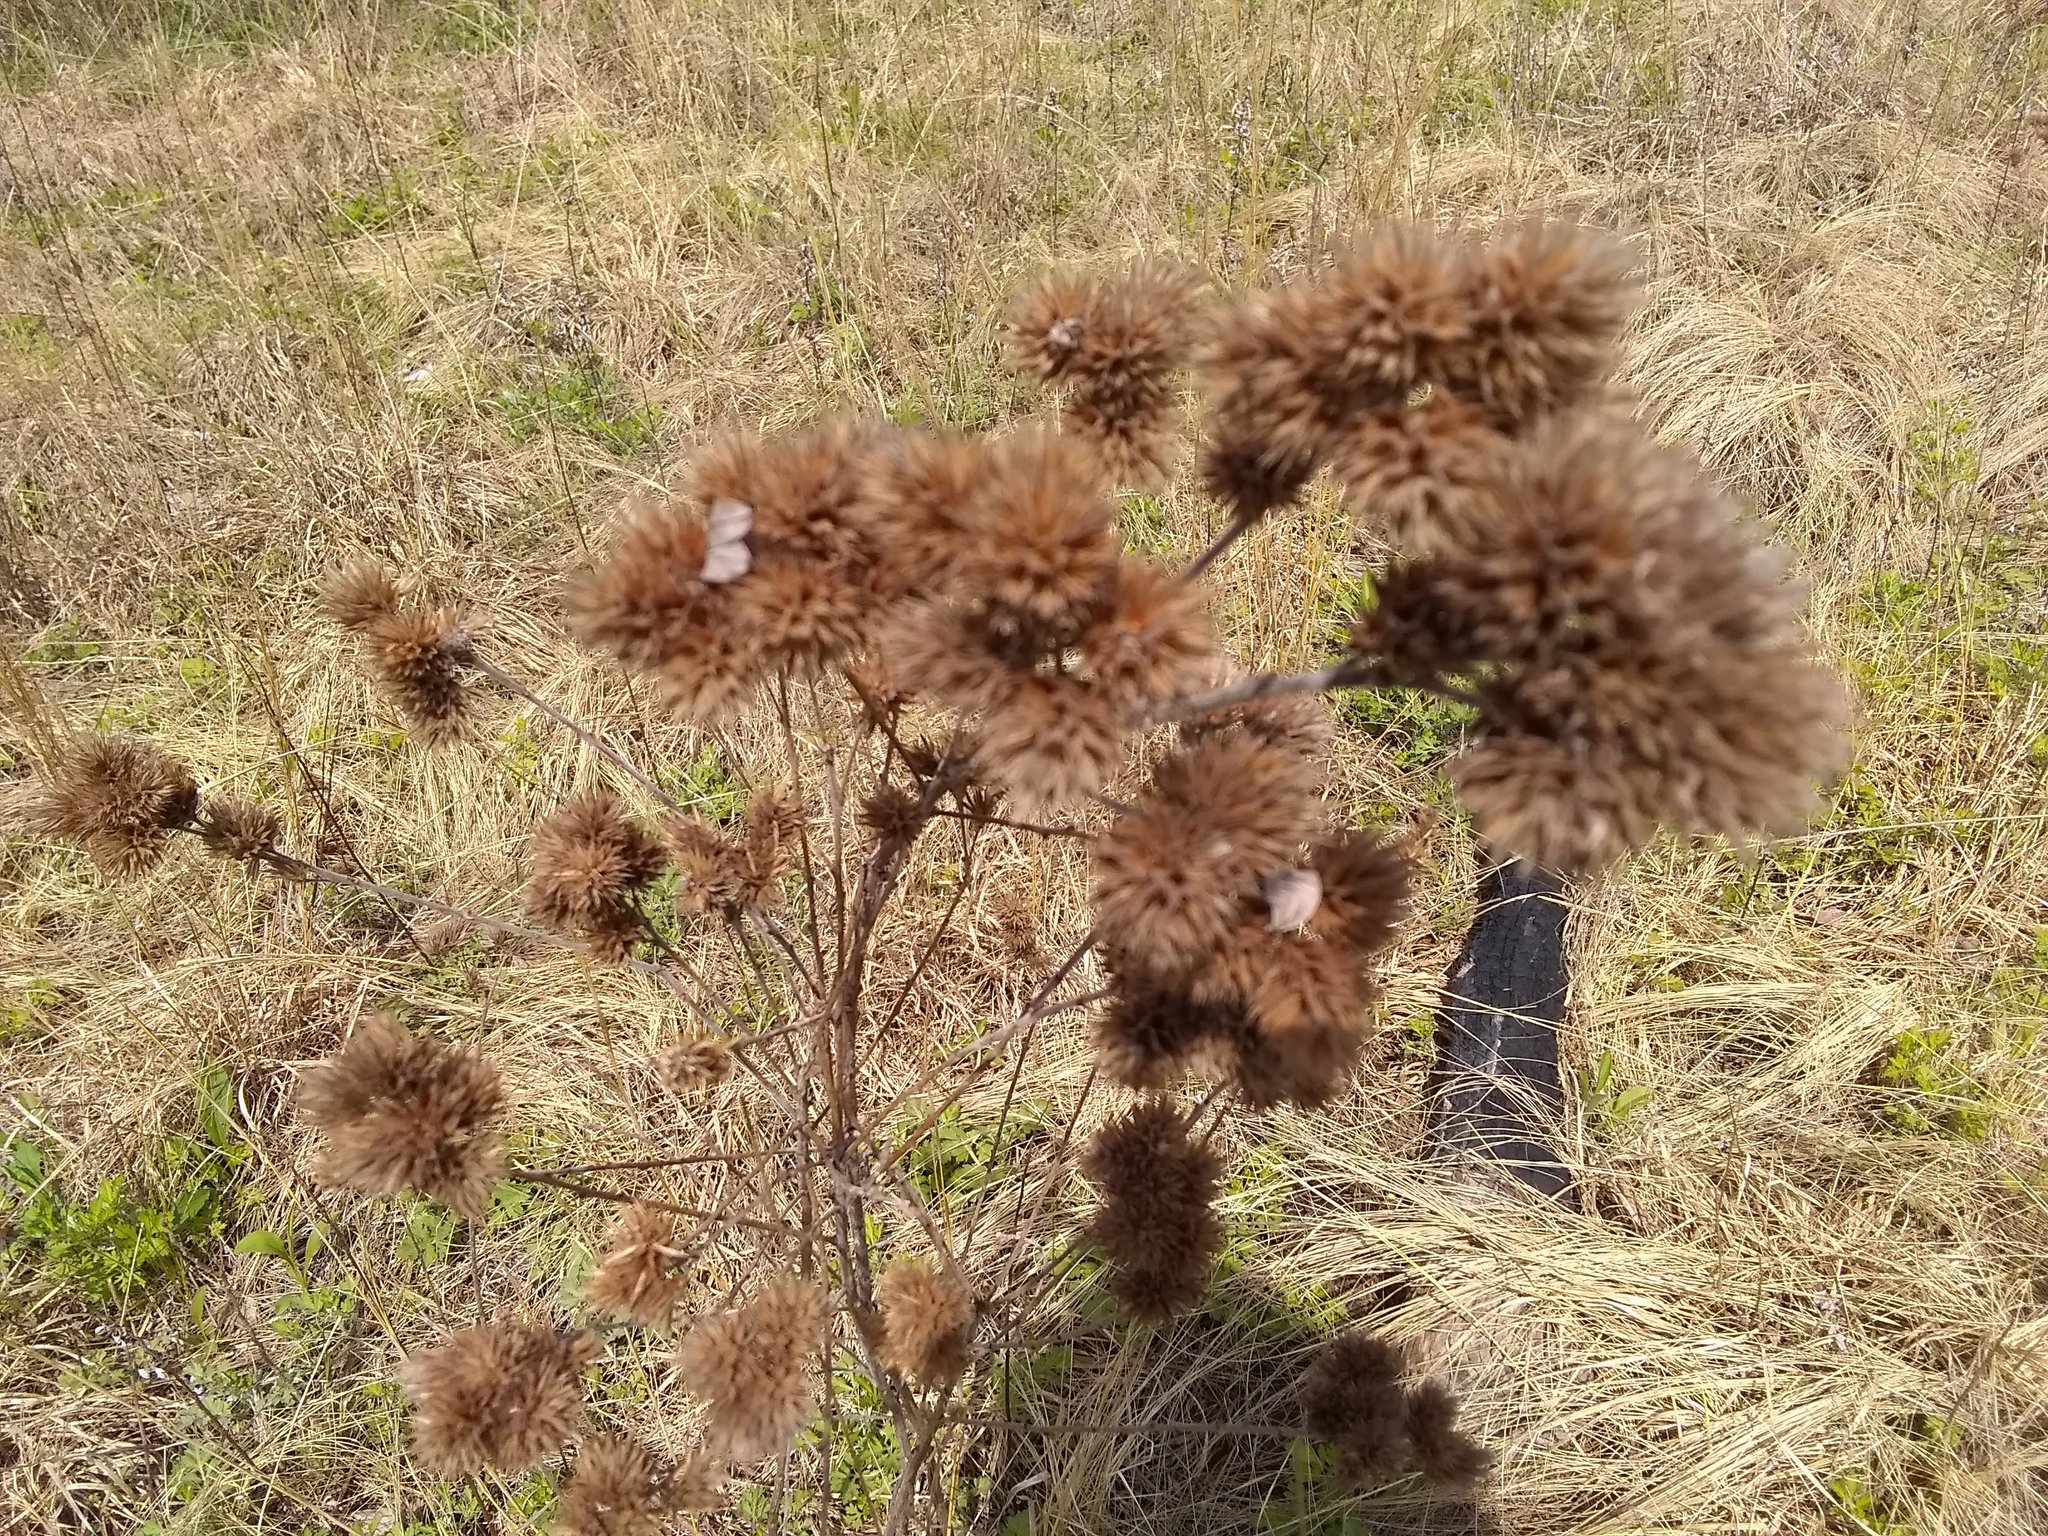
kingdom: Plantae
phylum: Tracheophyta
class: Magnoliopsida
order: Fabales
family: Fabaceae
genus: Lespedeza
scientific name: Lespedeza capitata
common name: Dusty clover
